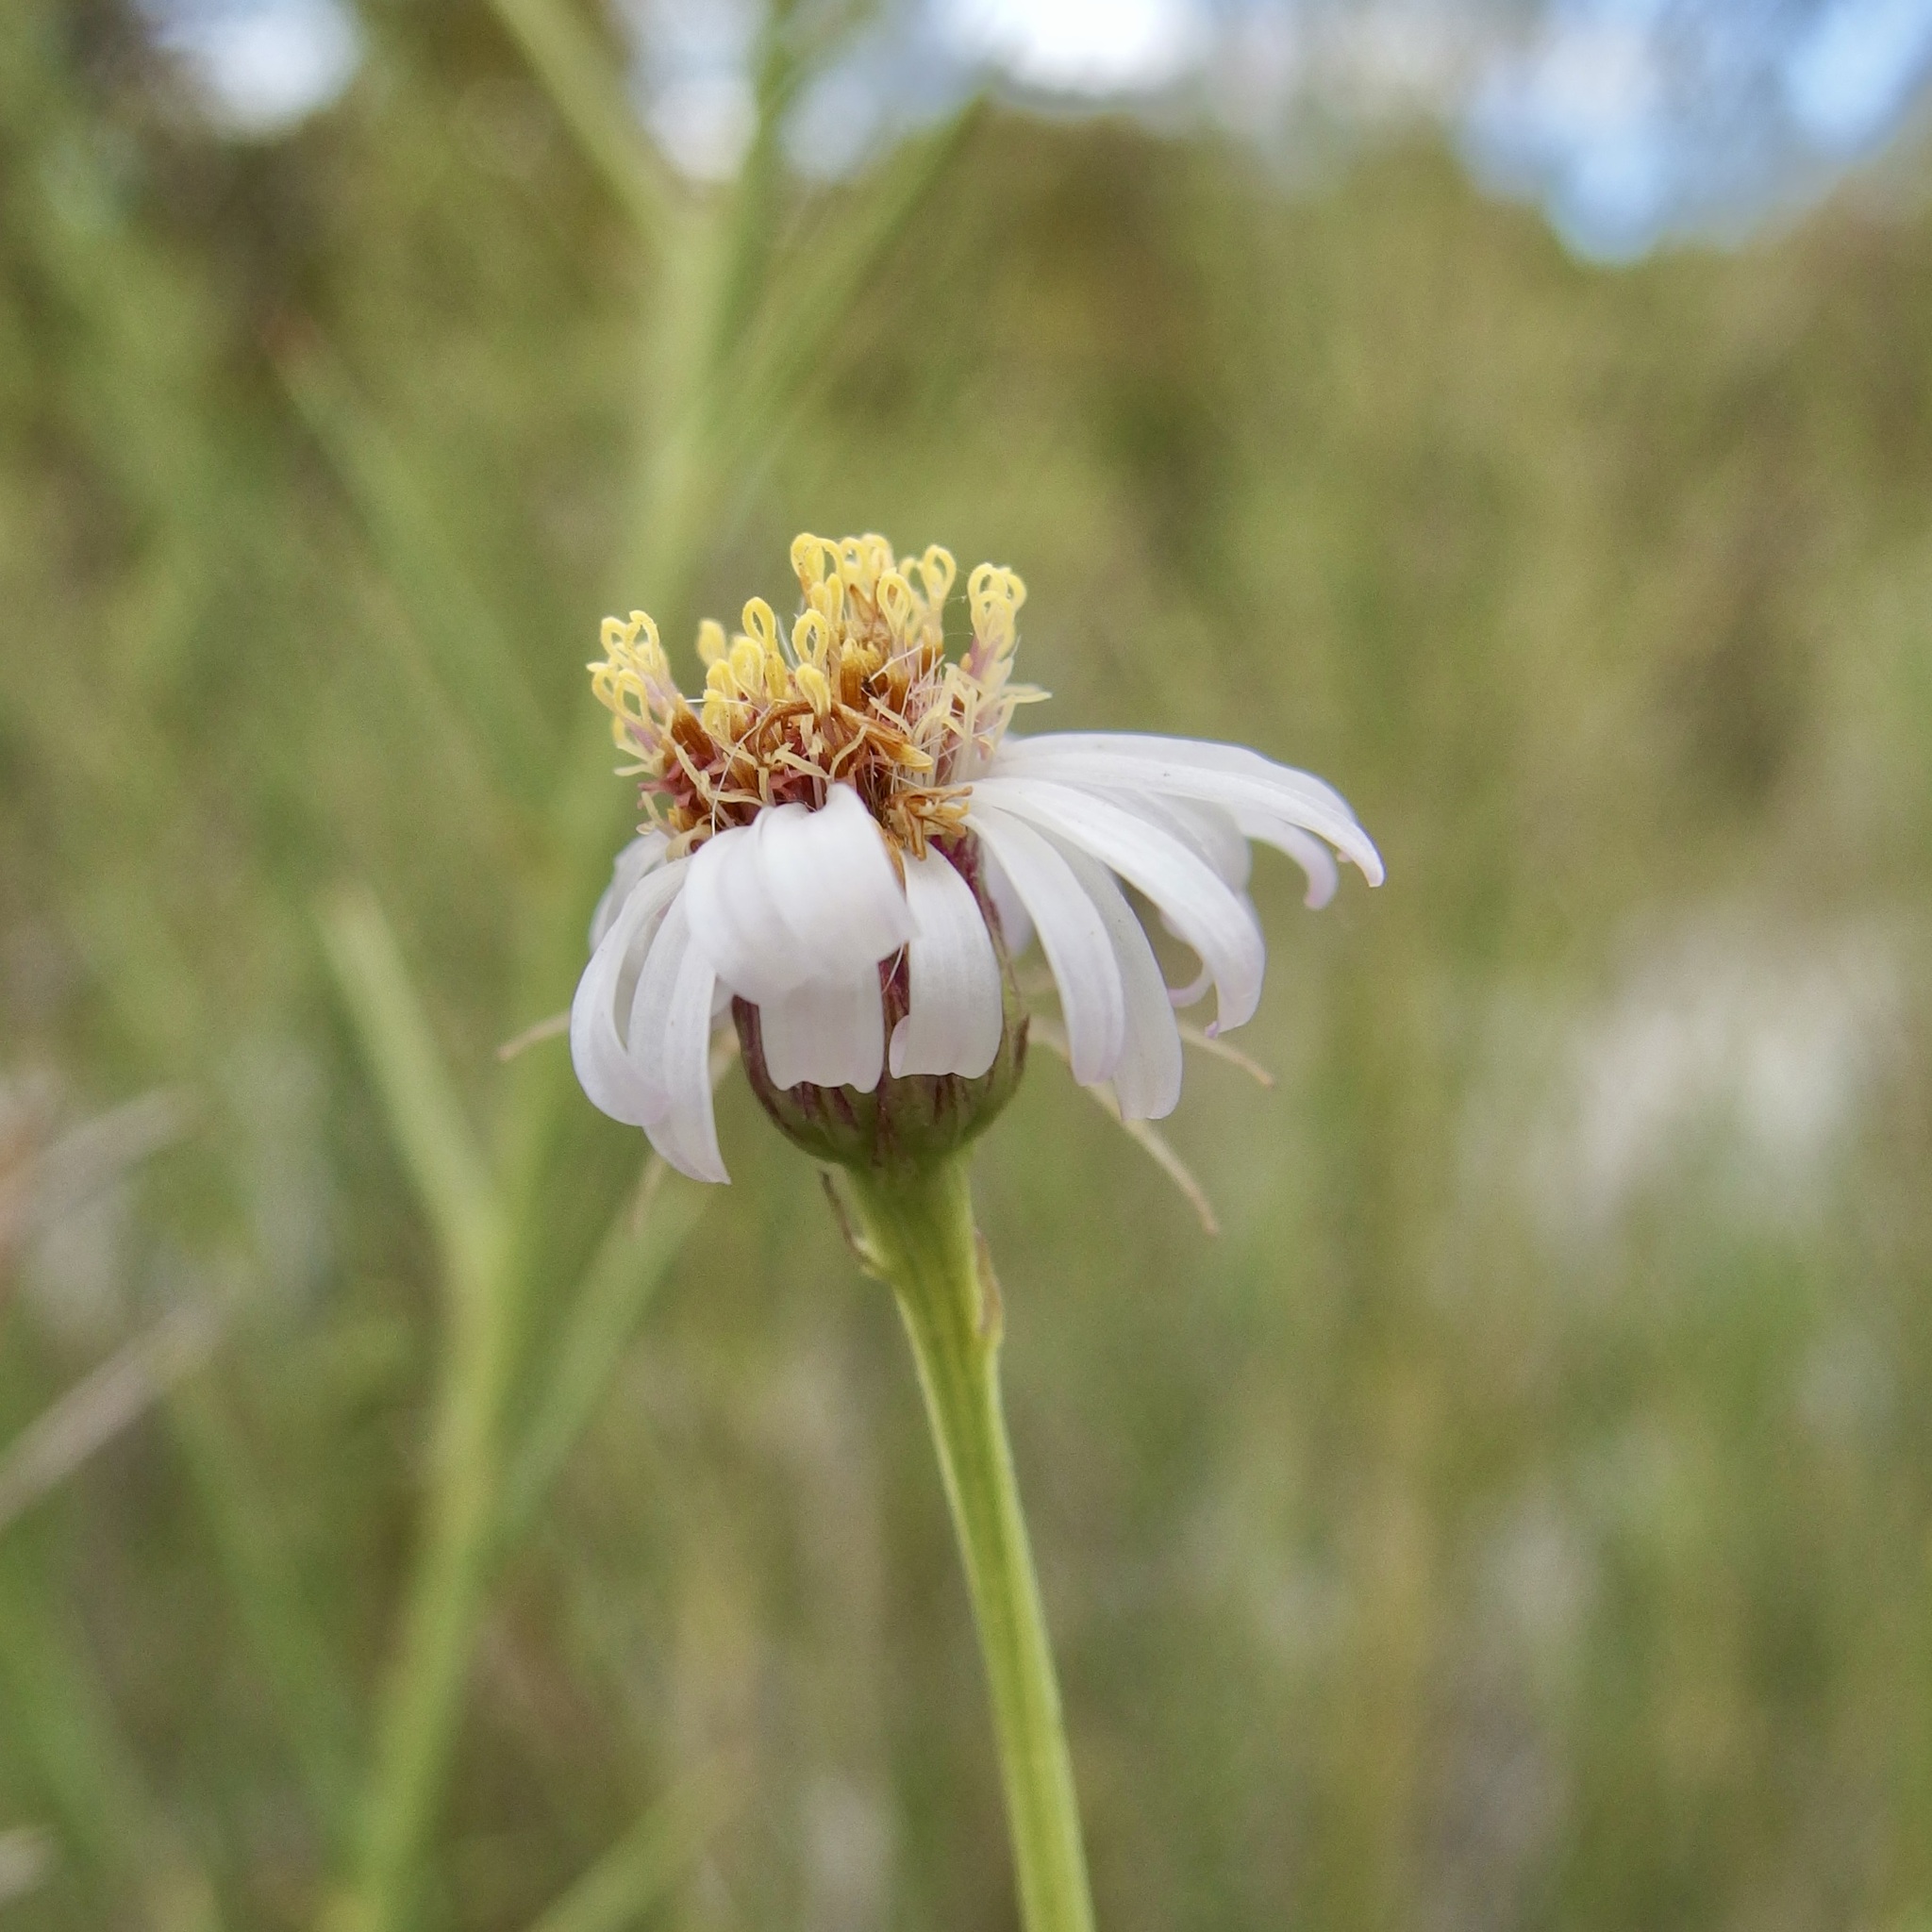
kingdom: Plantae
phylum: Tracheophyta
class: Magnoliopsida
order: Asterales
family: Asteraceae
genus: Chloracantha
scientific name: Chloracantha spinosissima
